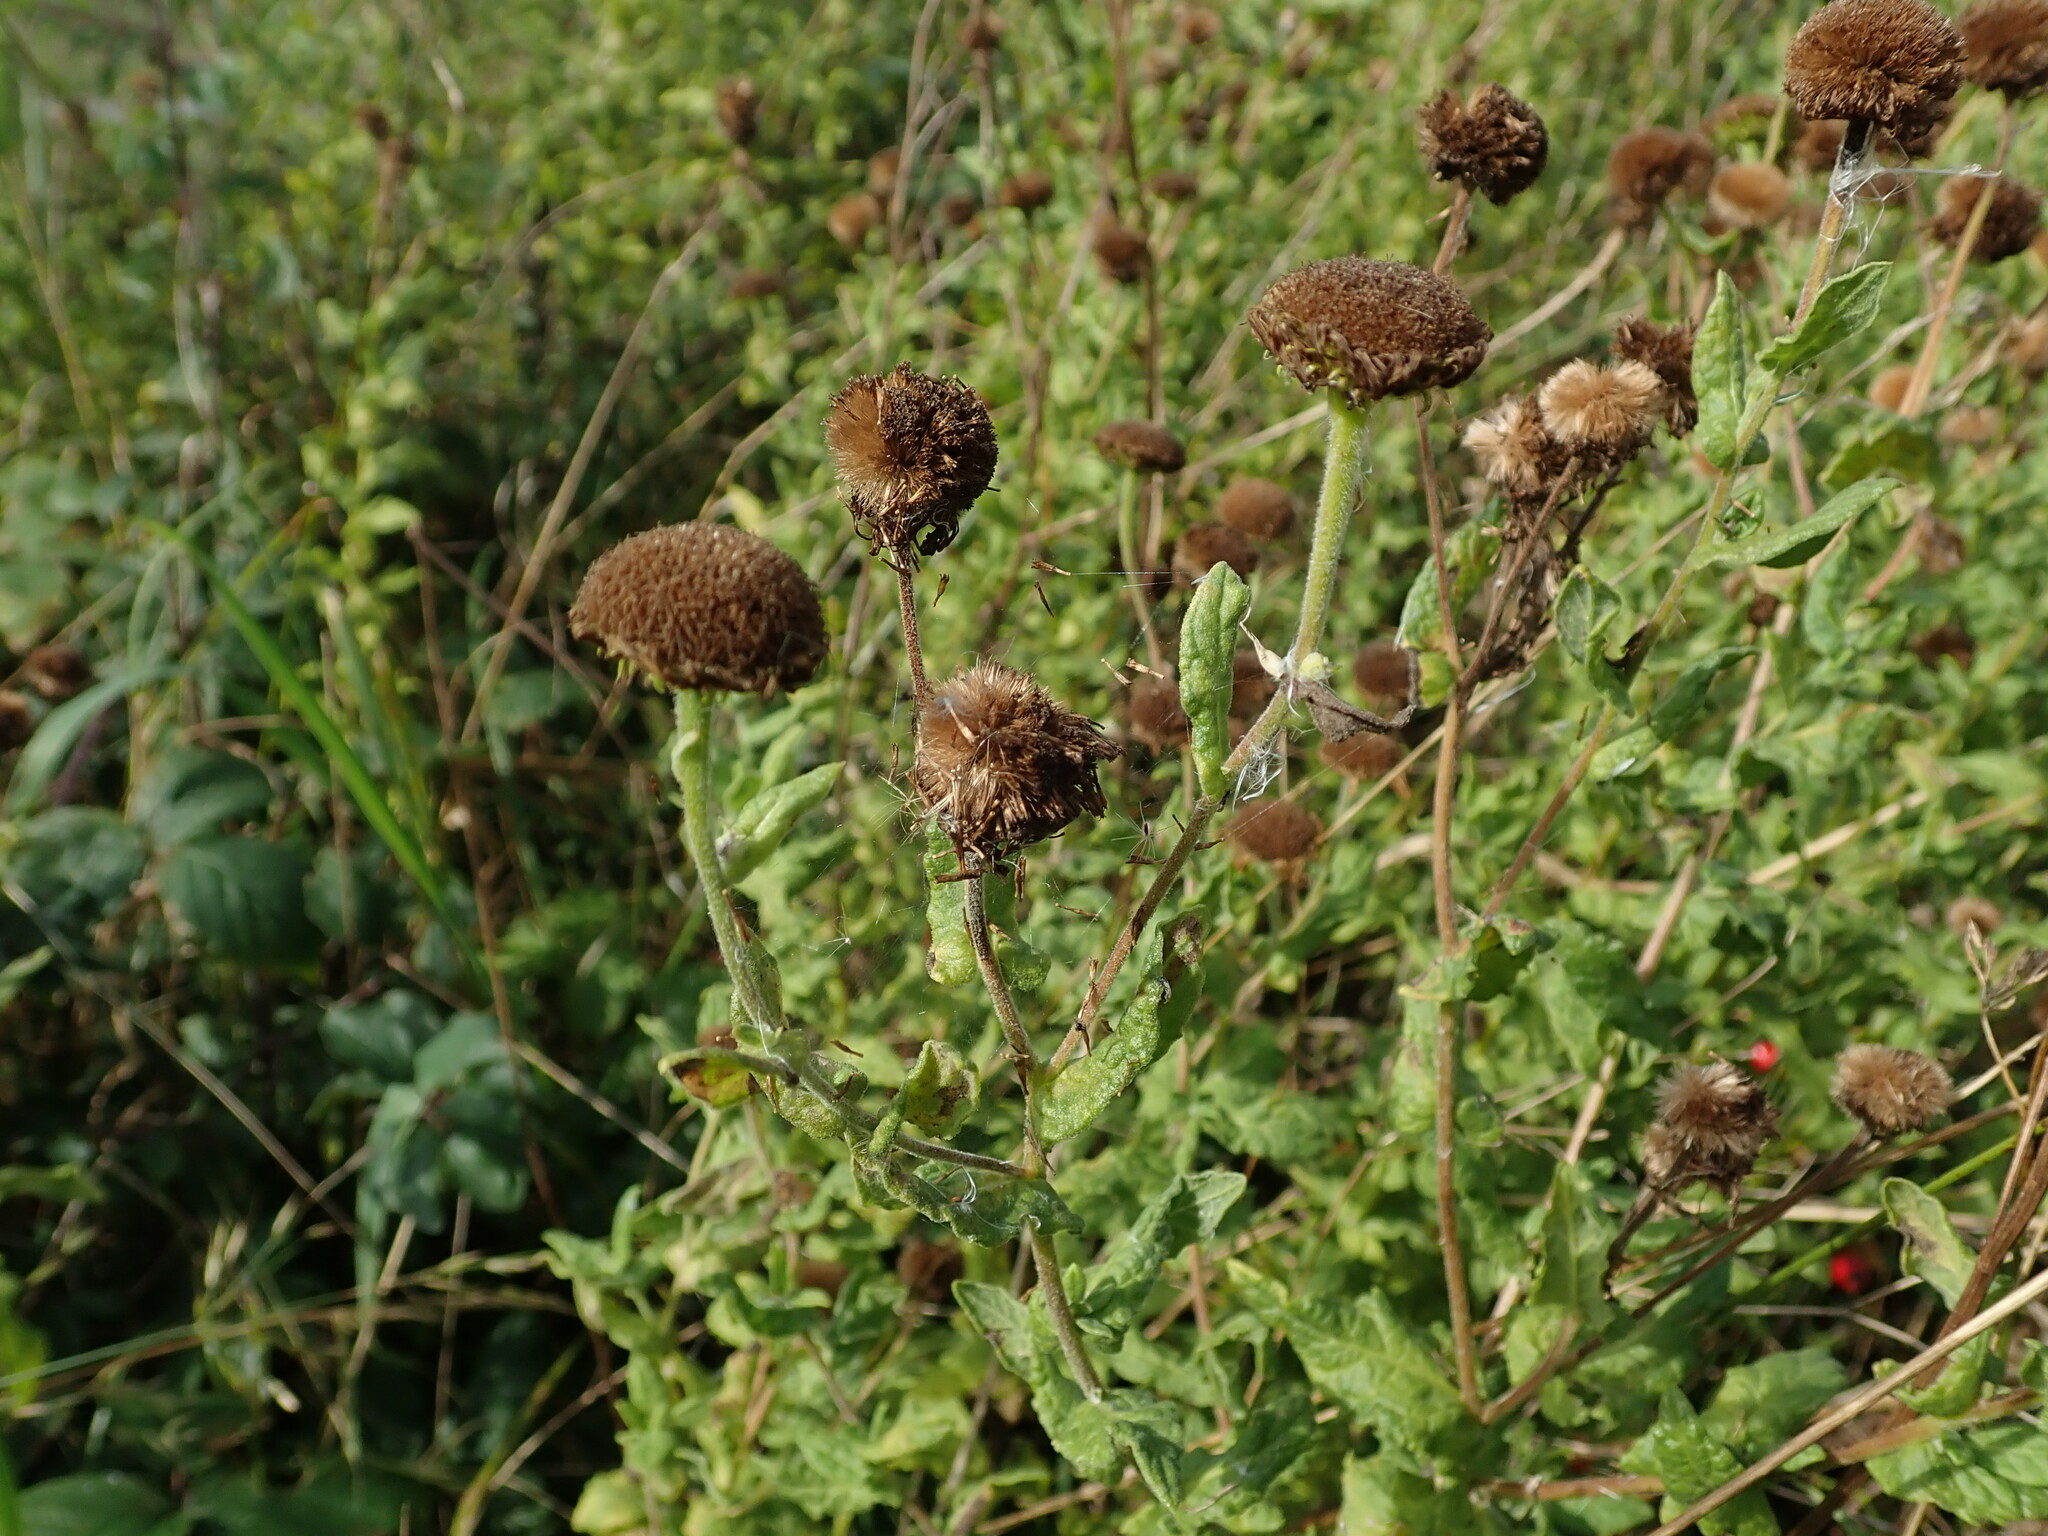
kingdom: Plantae
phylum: Tracheophyta
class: Magnoliopsida
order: Asterales
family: Asteraceae
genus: Pulicaria
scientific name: Pulicaria dysenterica
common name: Common fleabane
